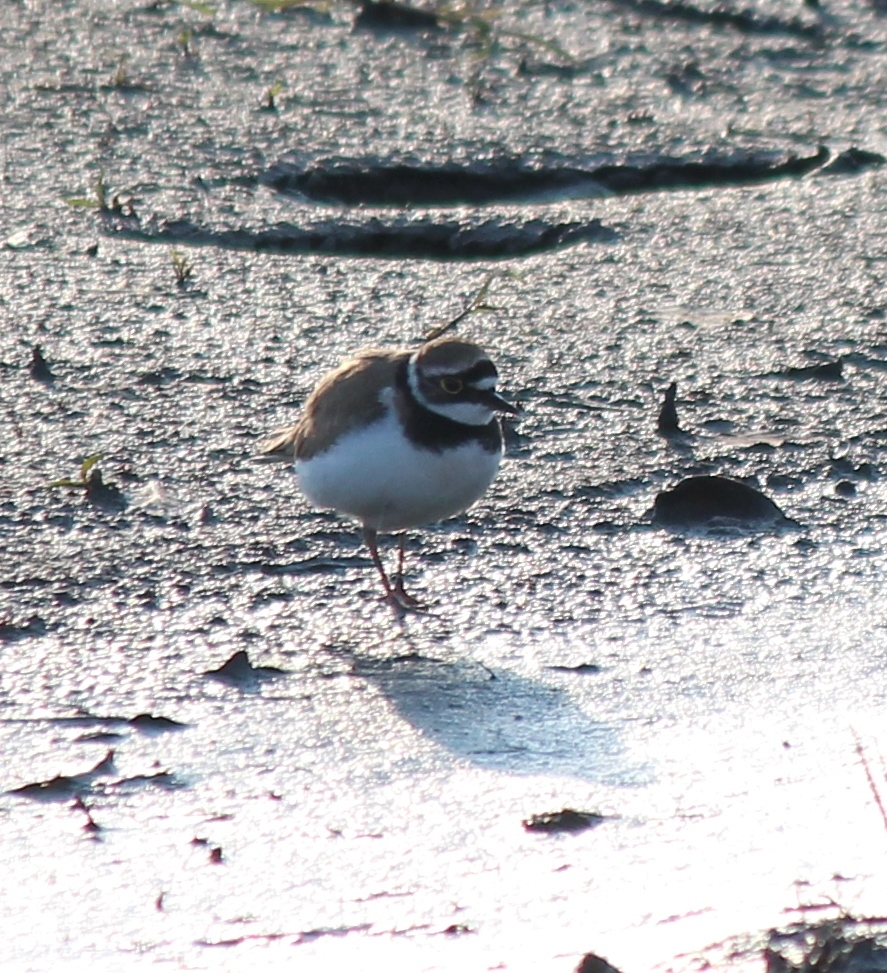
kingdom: Animalia
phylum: Chordata
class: Aves
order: Charadriiformes
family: Charadriidae
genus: Charadrius
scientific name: Charadrius dubius
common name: Little ringed plover
